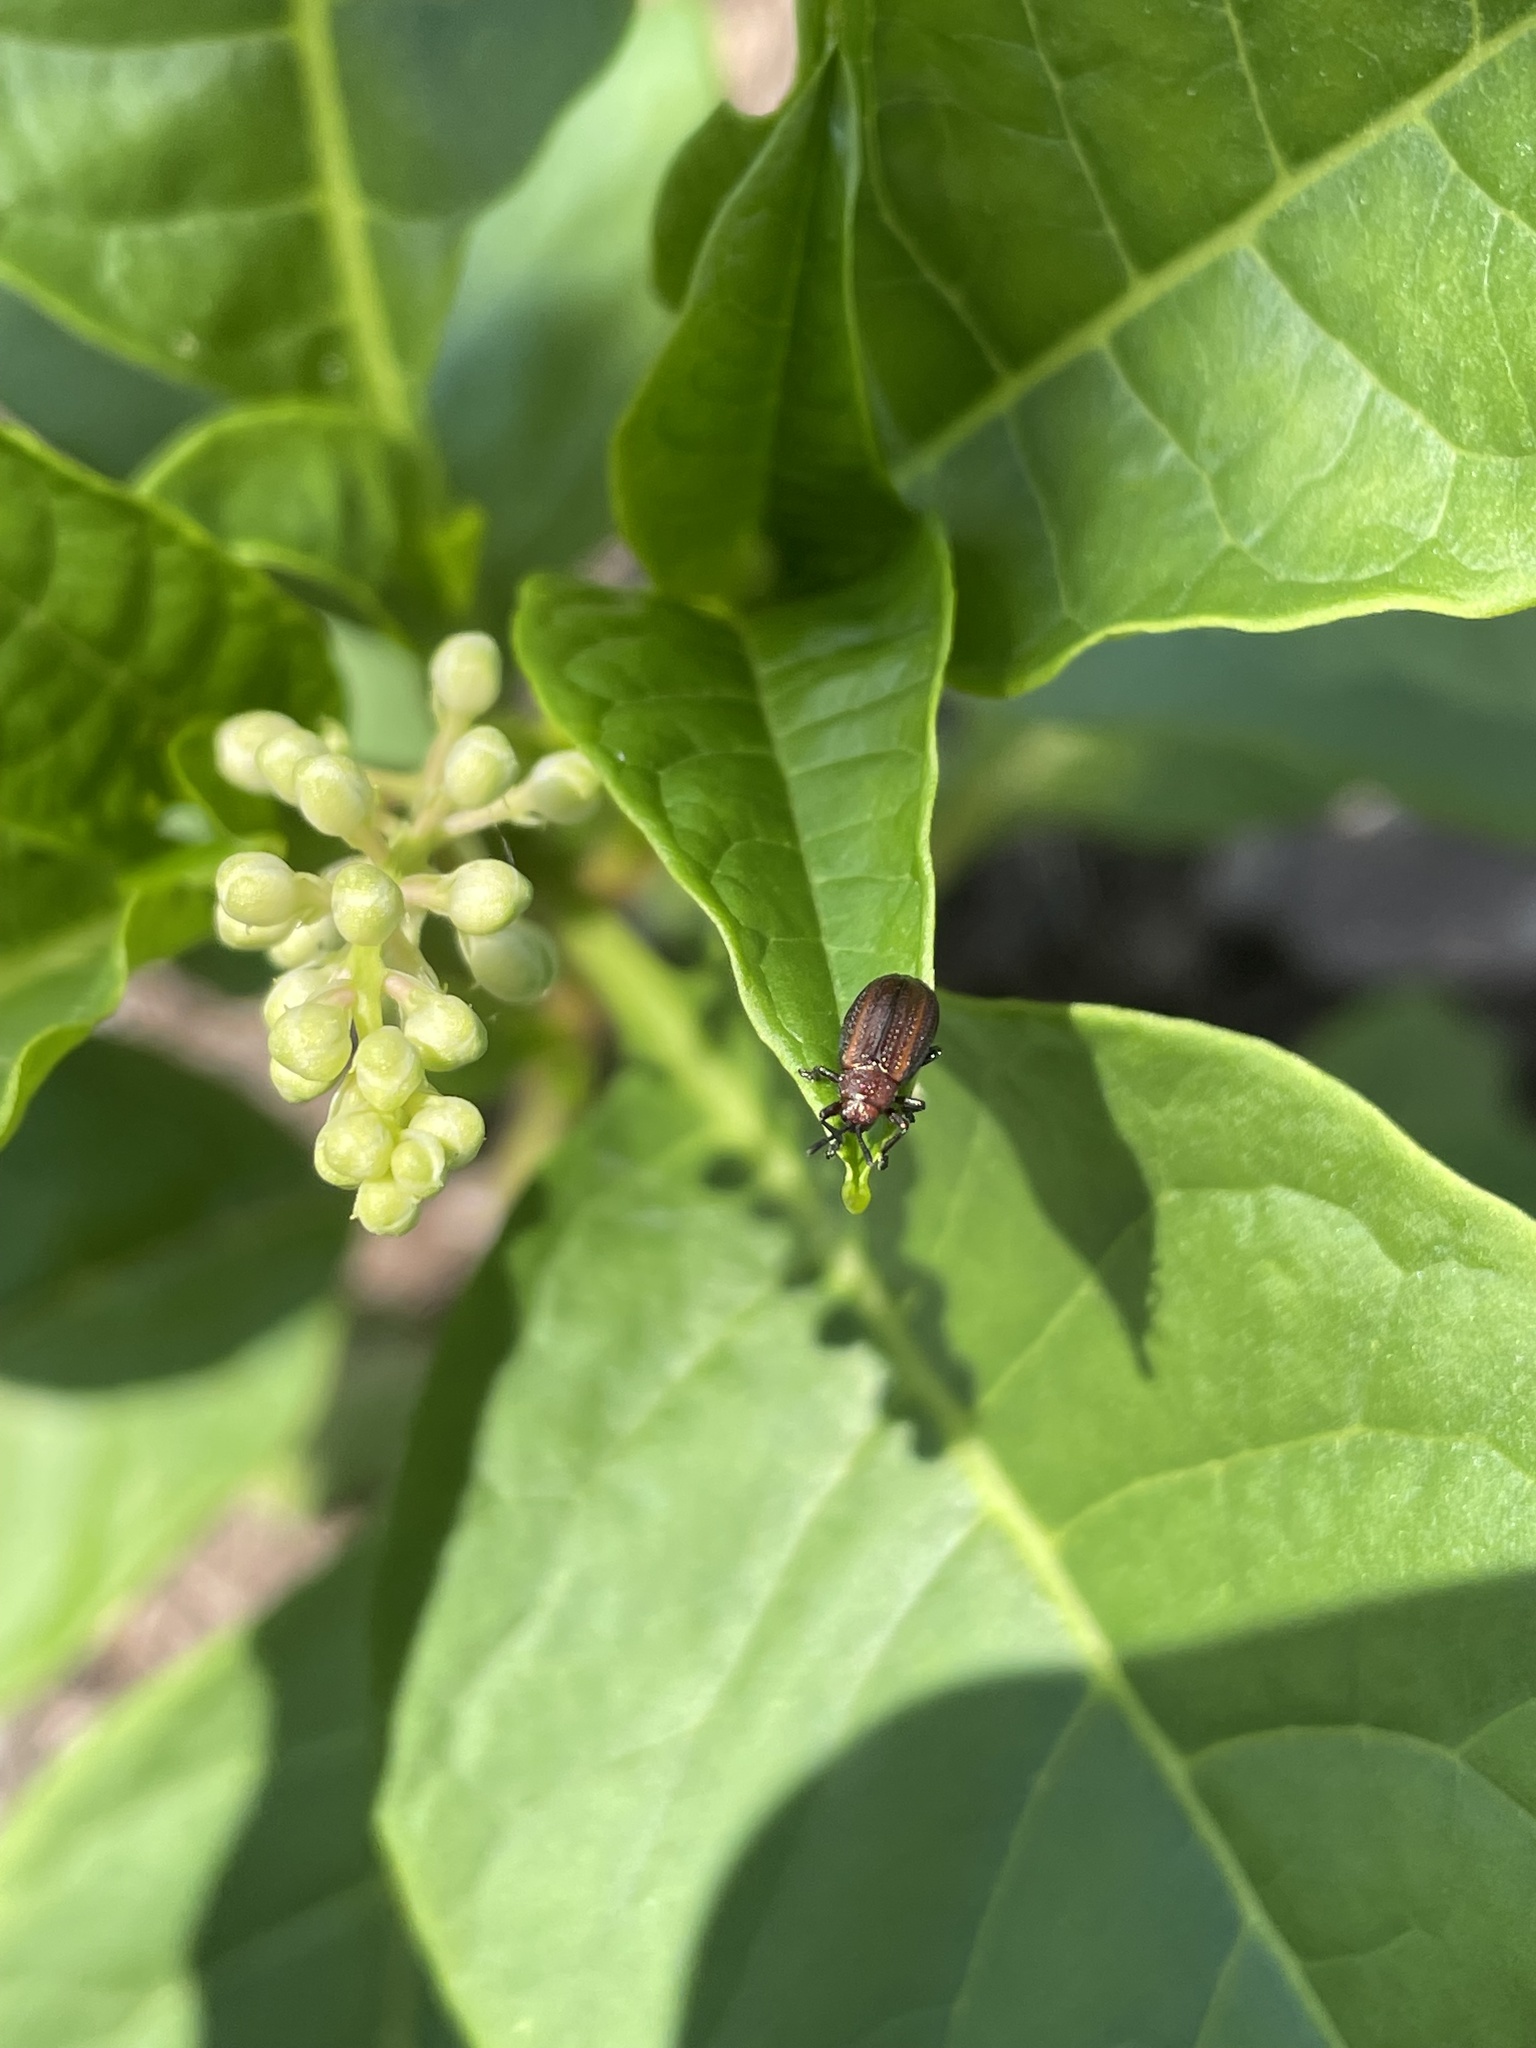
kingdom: Animalia
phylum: Arthropoda
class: Insecta
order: Coleoptera
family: Chrysomelidae
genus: Microrhopala
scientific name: Microrhopala vittata
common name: Goldenrod leaf miner beetle
